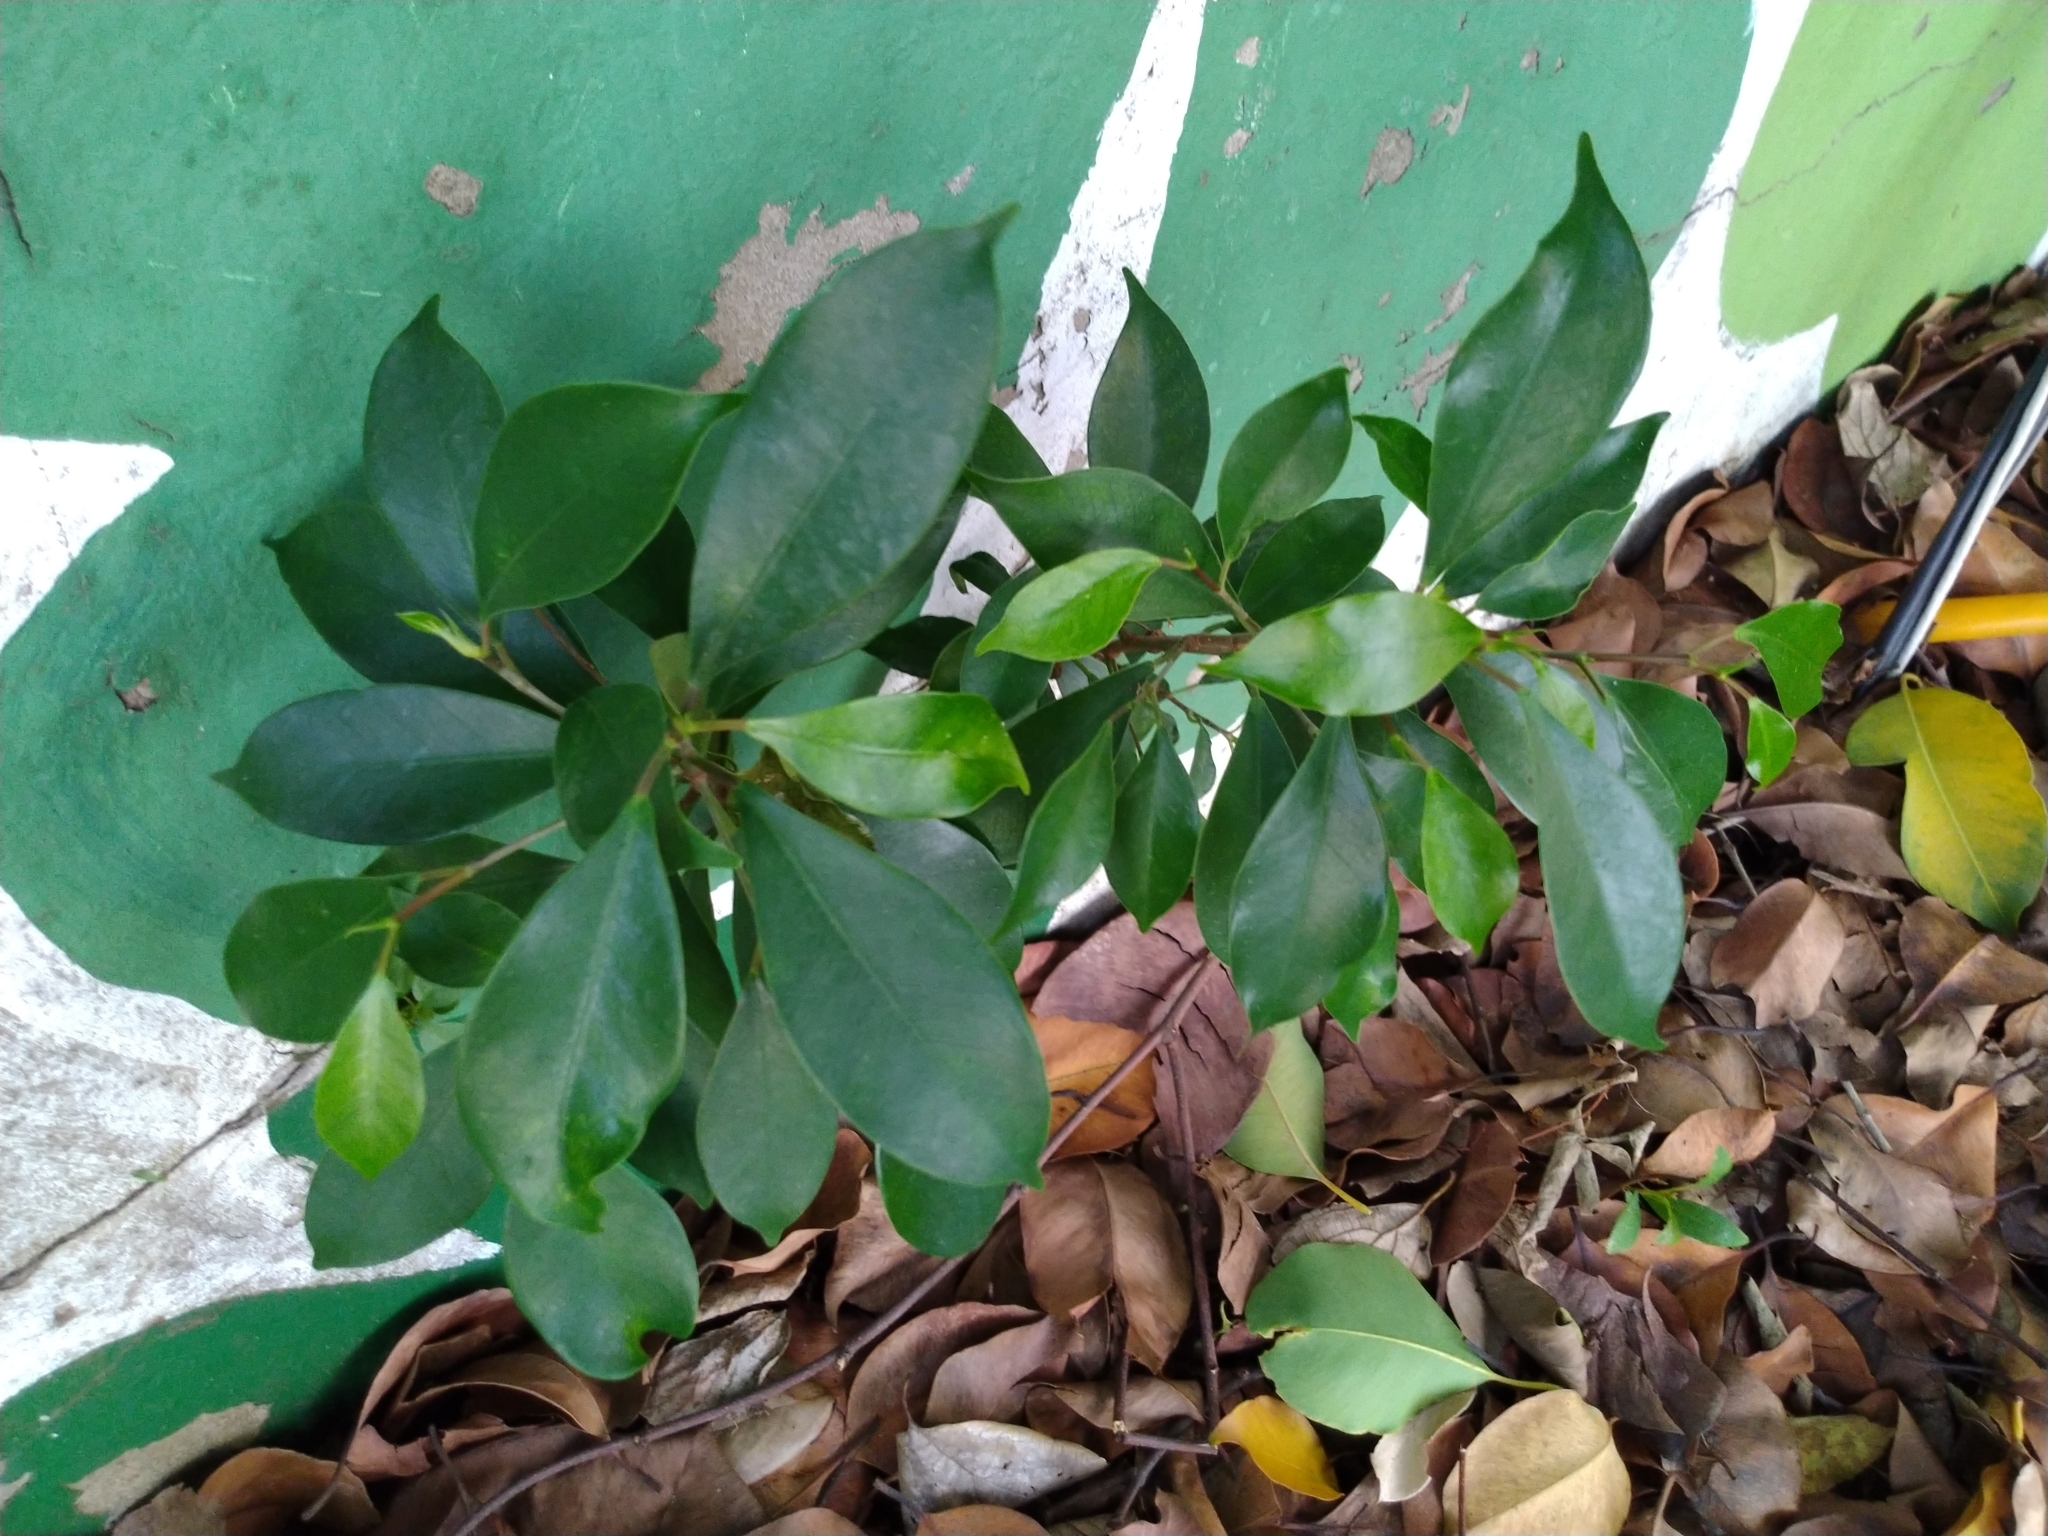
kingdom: Plantae
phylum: Tracheophyta
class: Magnoliopsida
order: Rosales
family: Moraceae
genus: Ficus
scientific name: Ficus microcarpa
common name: Chinese banyan
